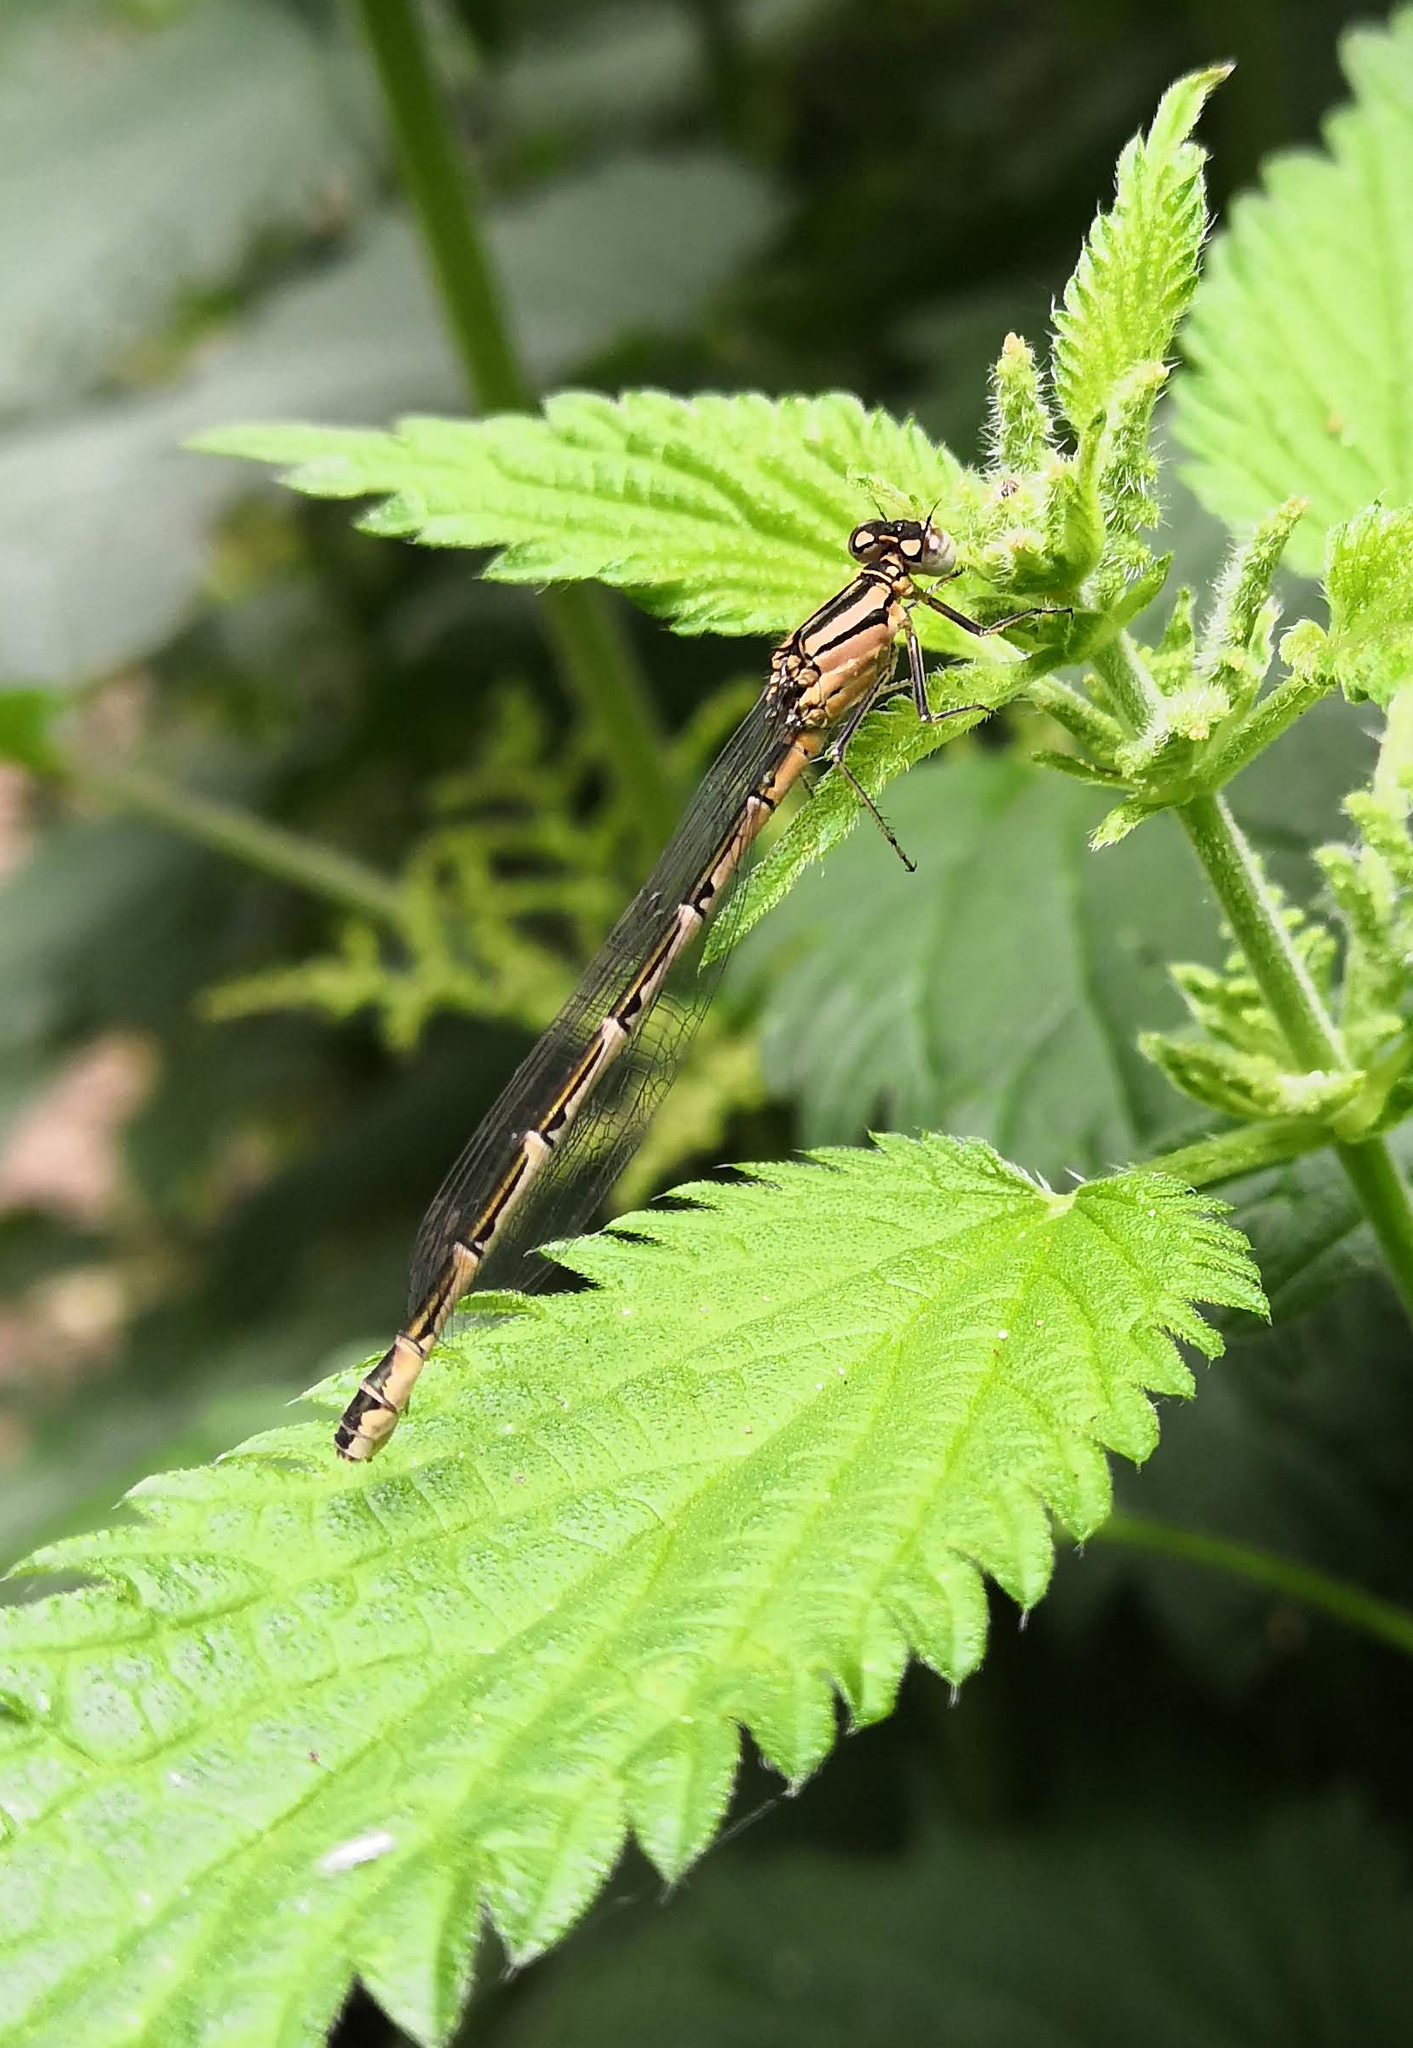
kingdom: Animalia
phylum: Arthropoda
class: Insecta
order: Odonata
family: Coenagrionidae
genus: Enallagma
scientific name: Enallagma cyathigerum
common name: Common blue damselfly
